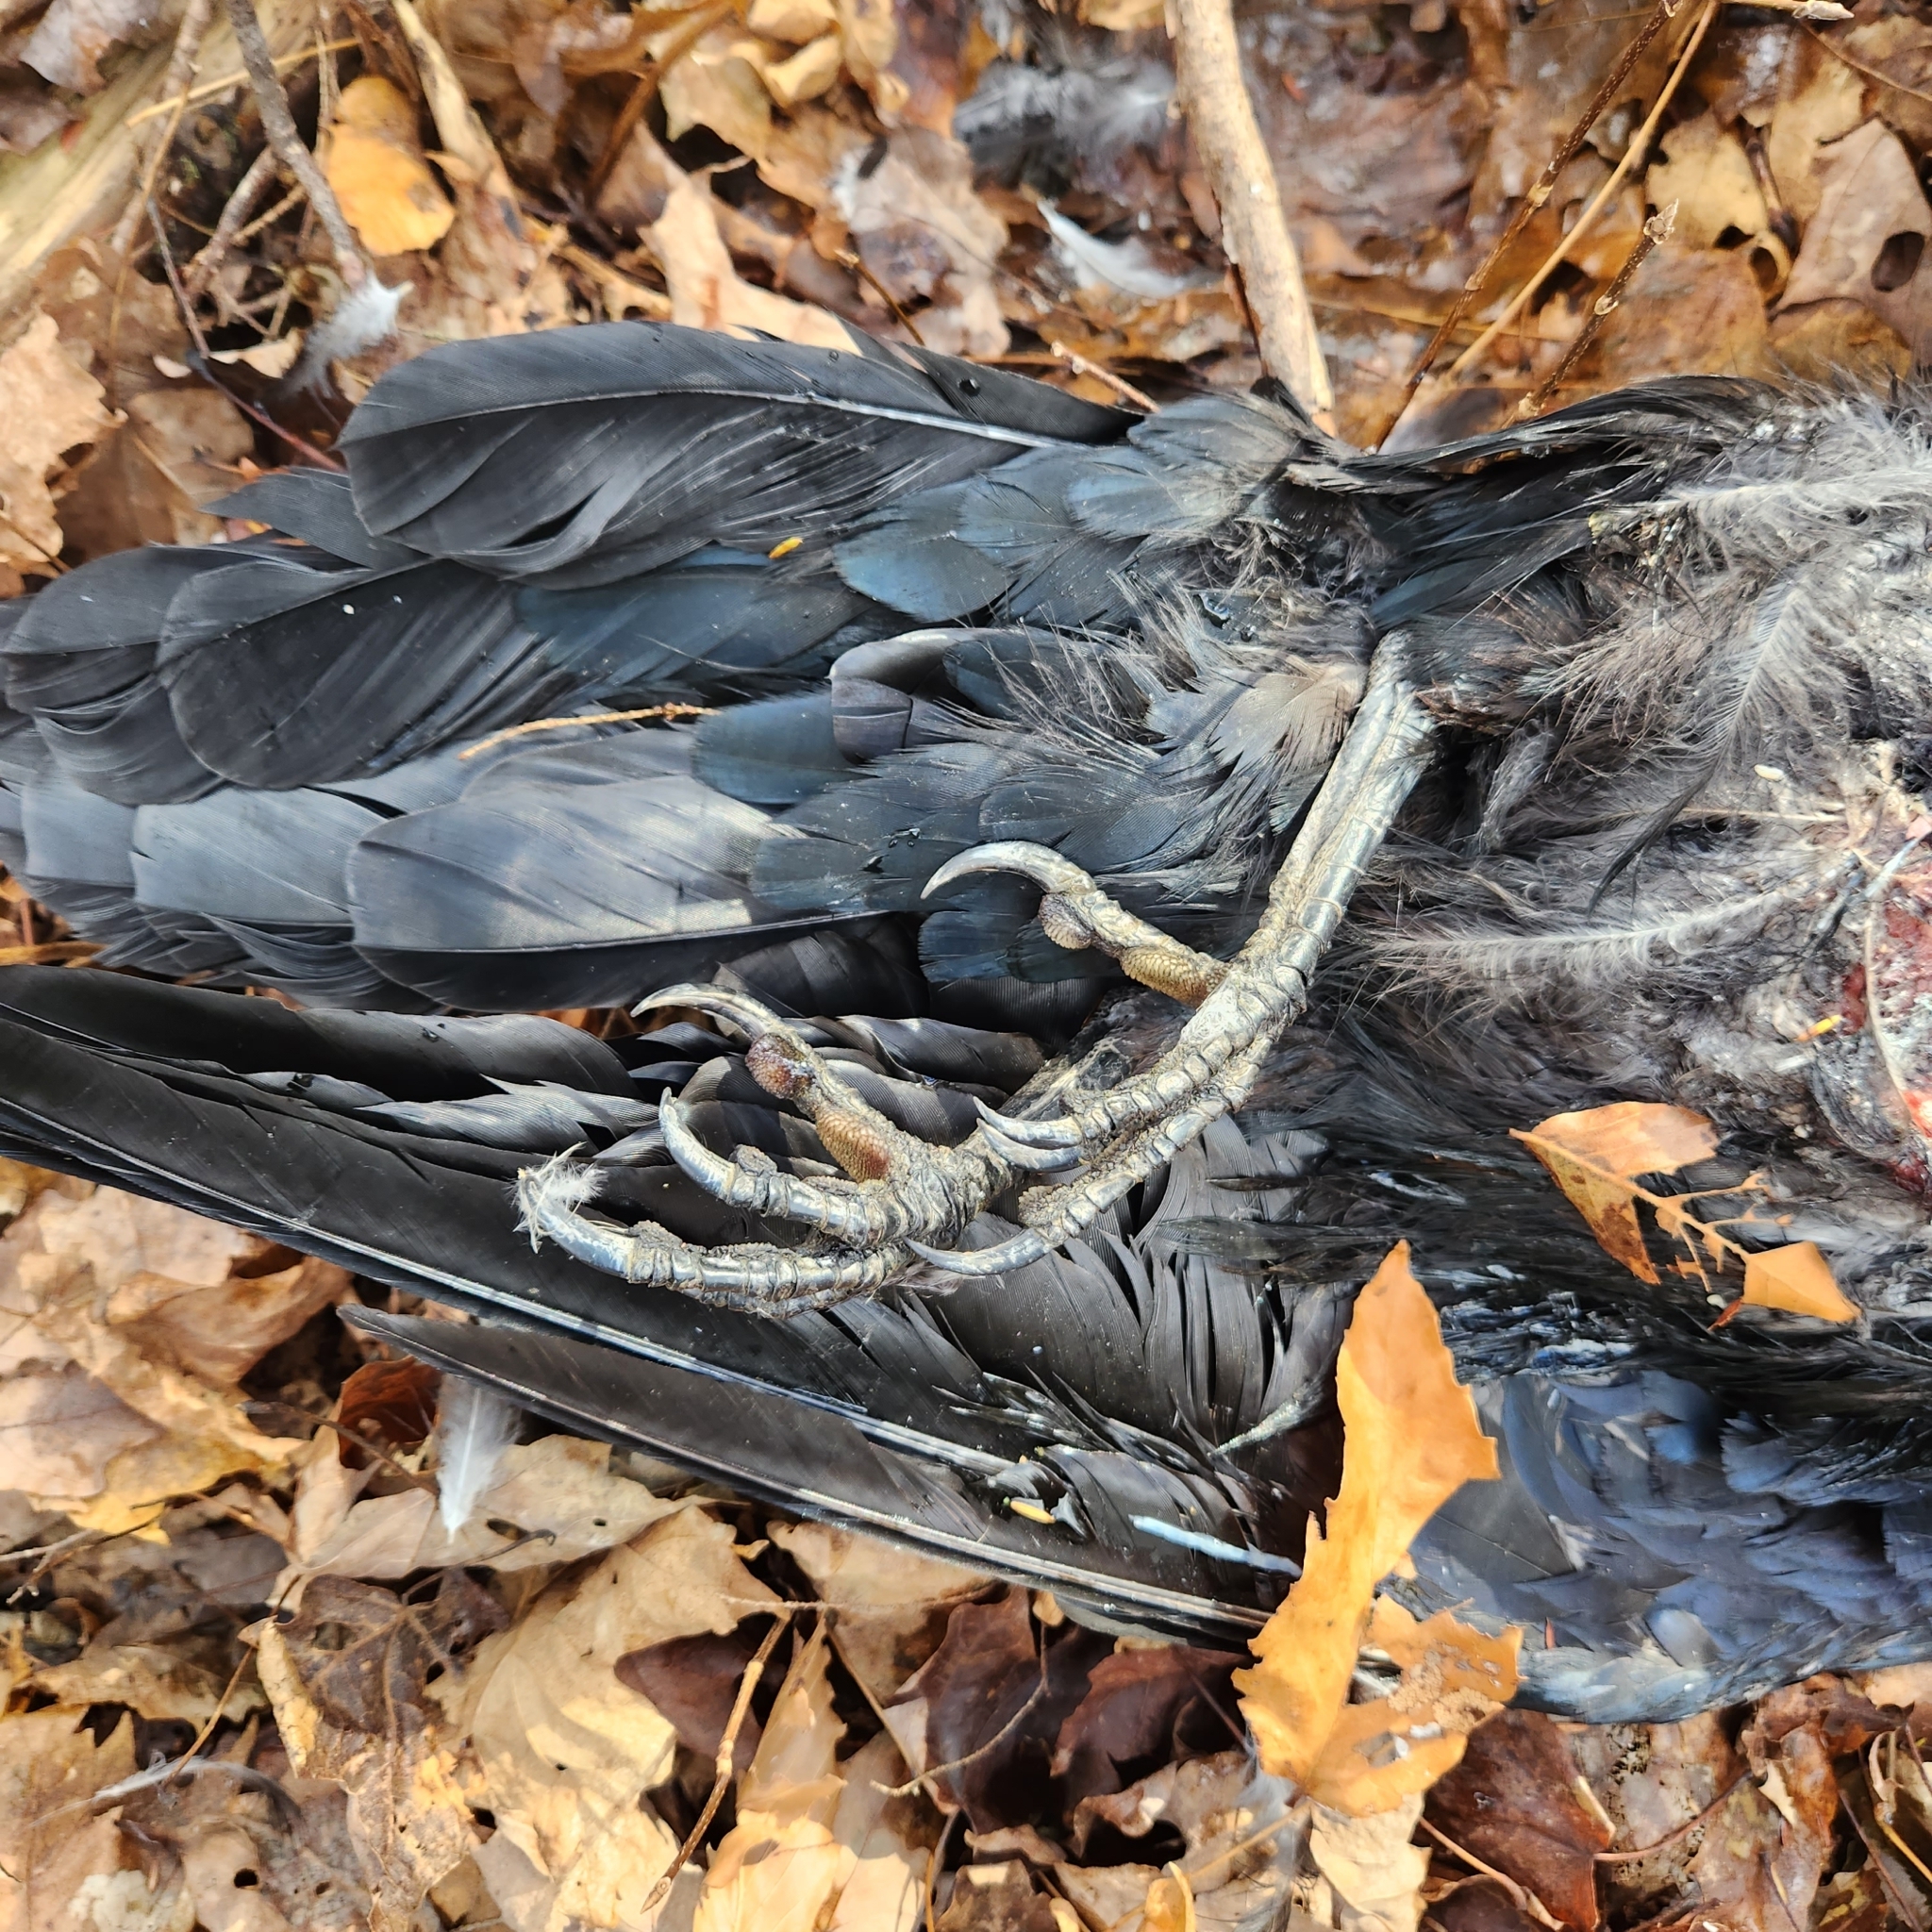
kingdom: Animalia
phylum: Chordata
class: Aves
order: Passeriformes
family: Corvidae
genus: Corvus
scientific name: Corvus corax
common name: Common raven
